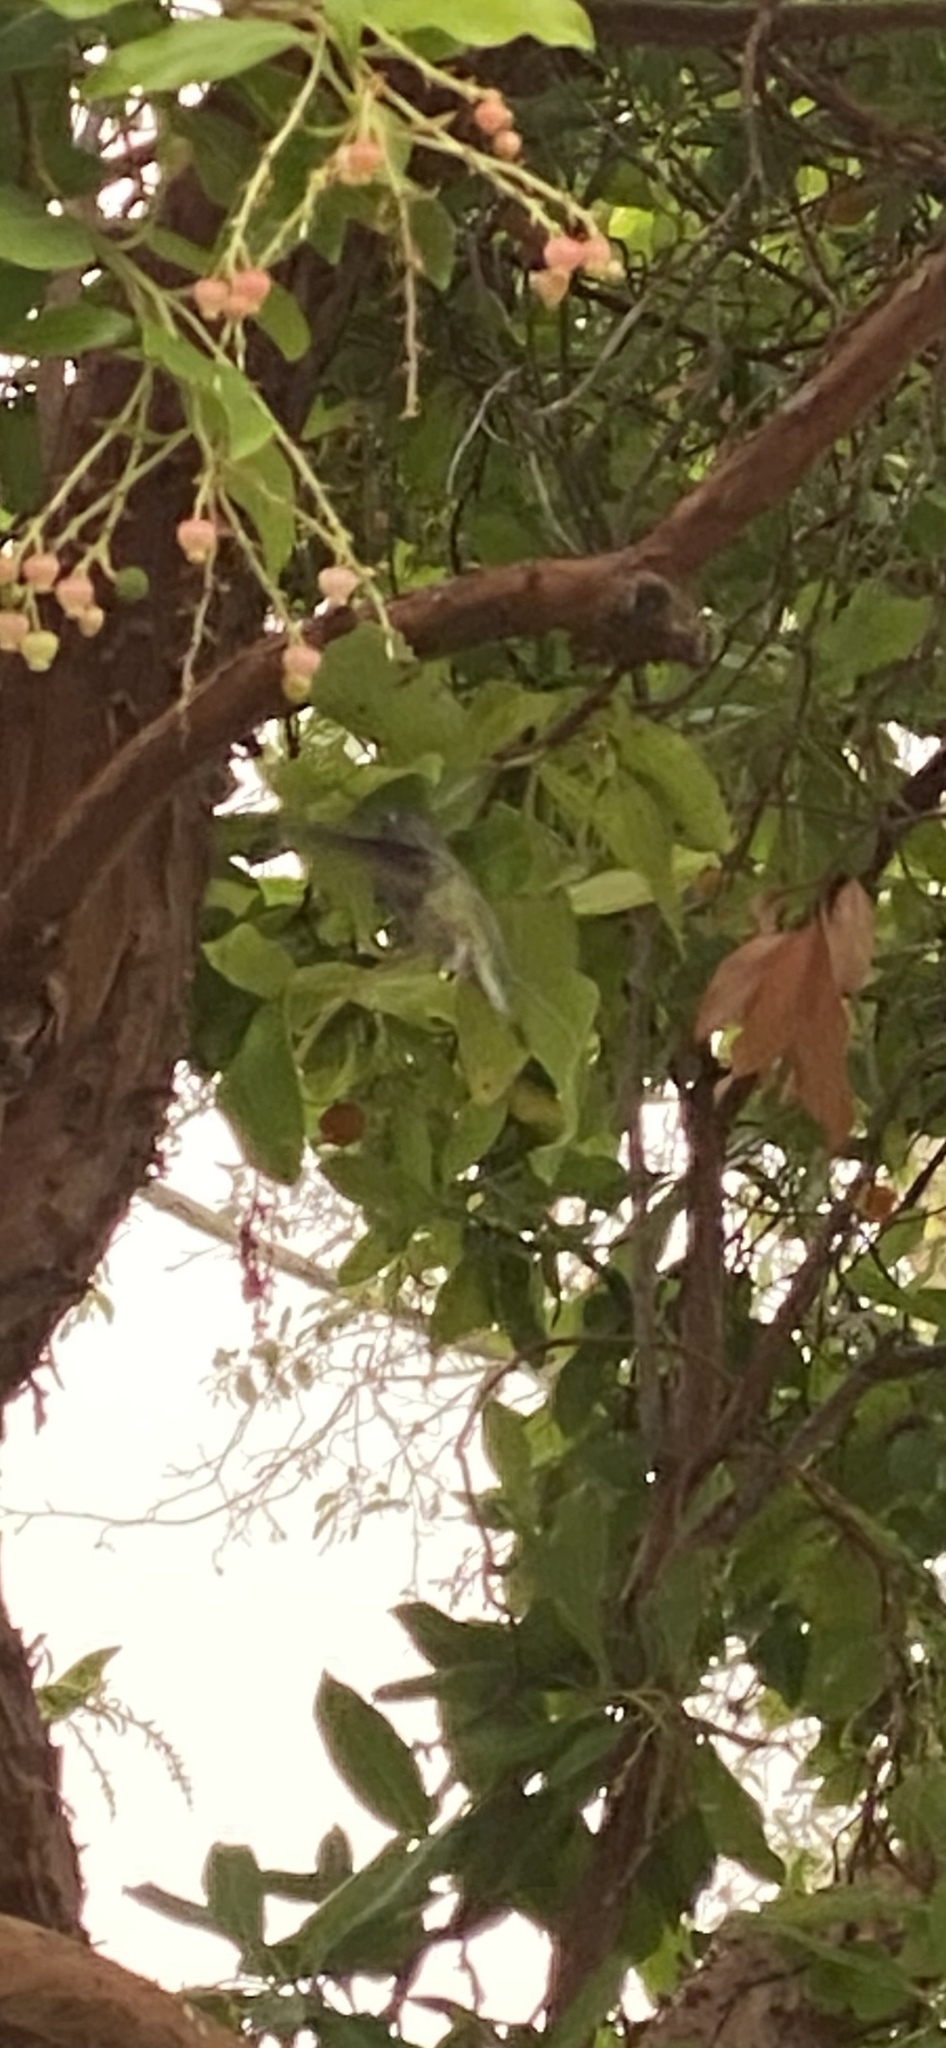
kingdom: Animalia
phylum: Chordata
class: Aves
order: Apodiformes
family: Trochilidae
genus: Calypte
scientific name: Calypte anna
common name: Anna's hummingbird
